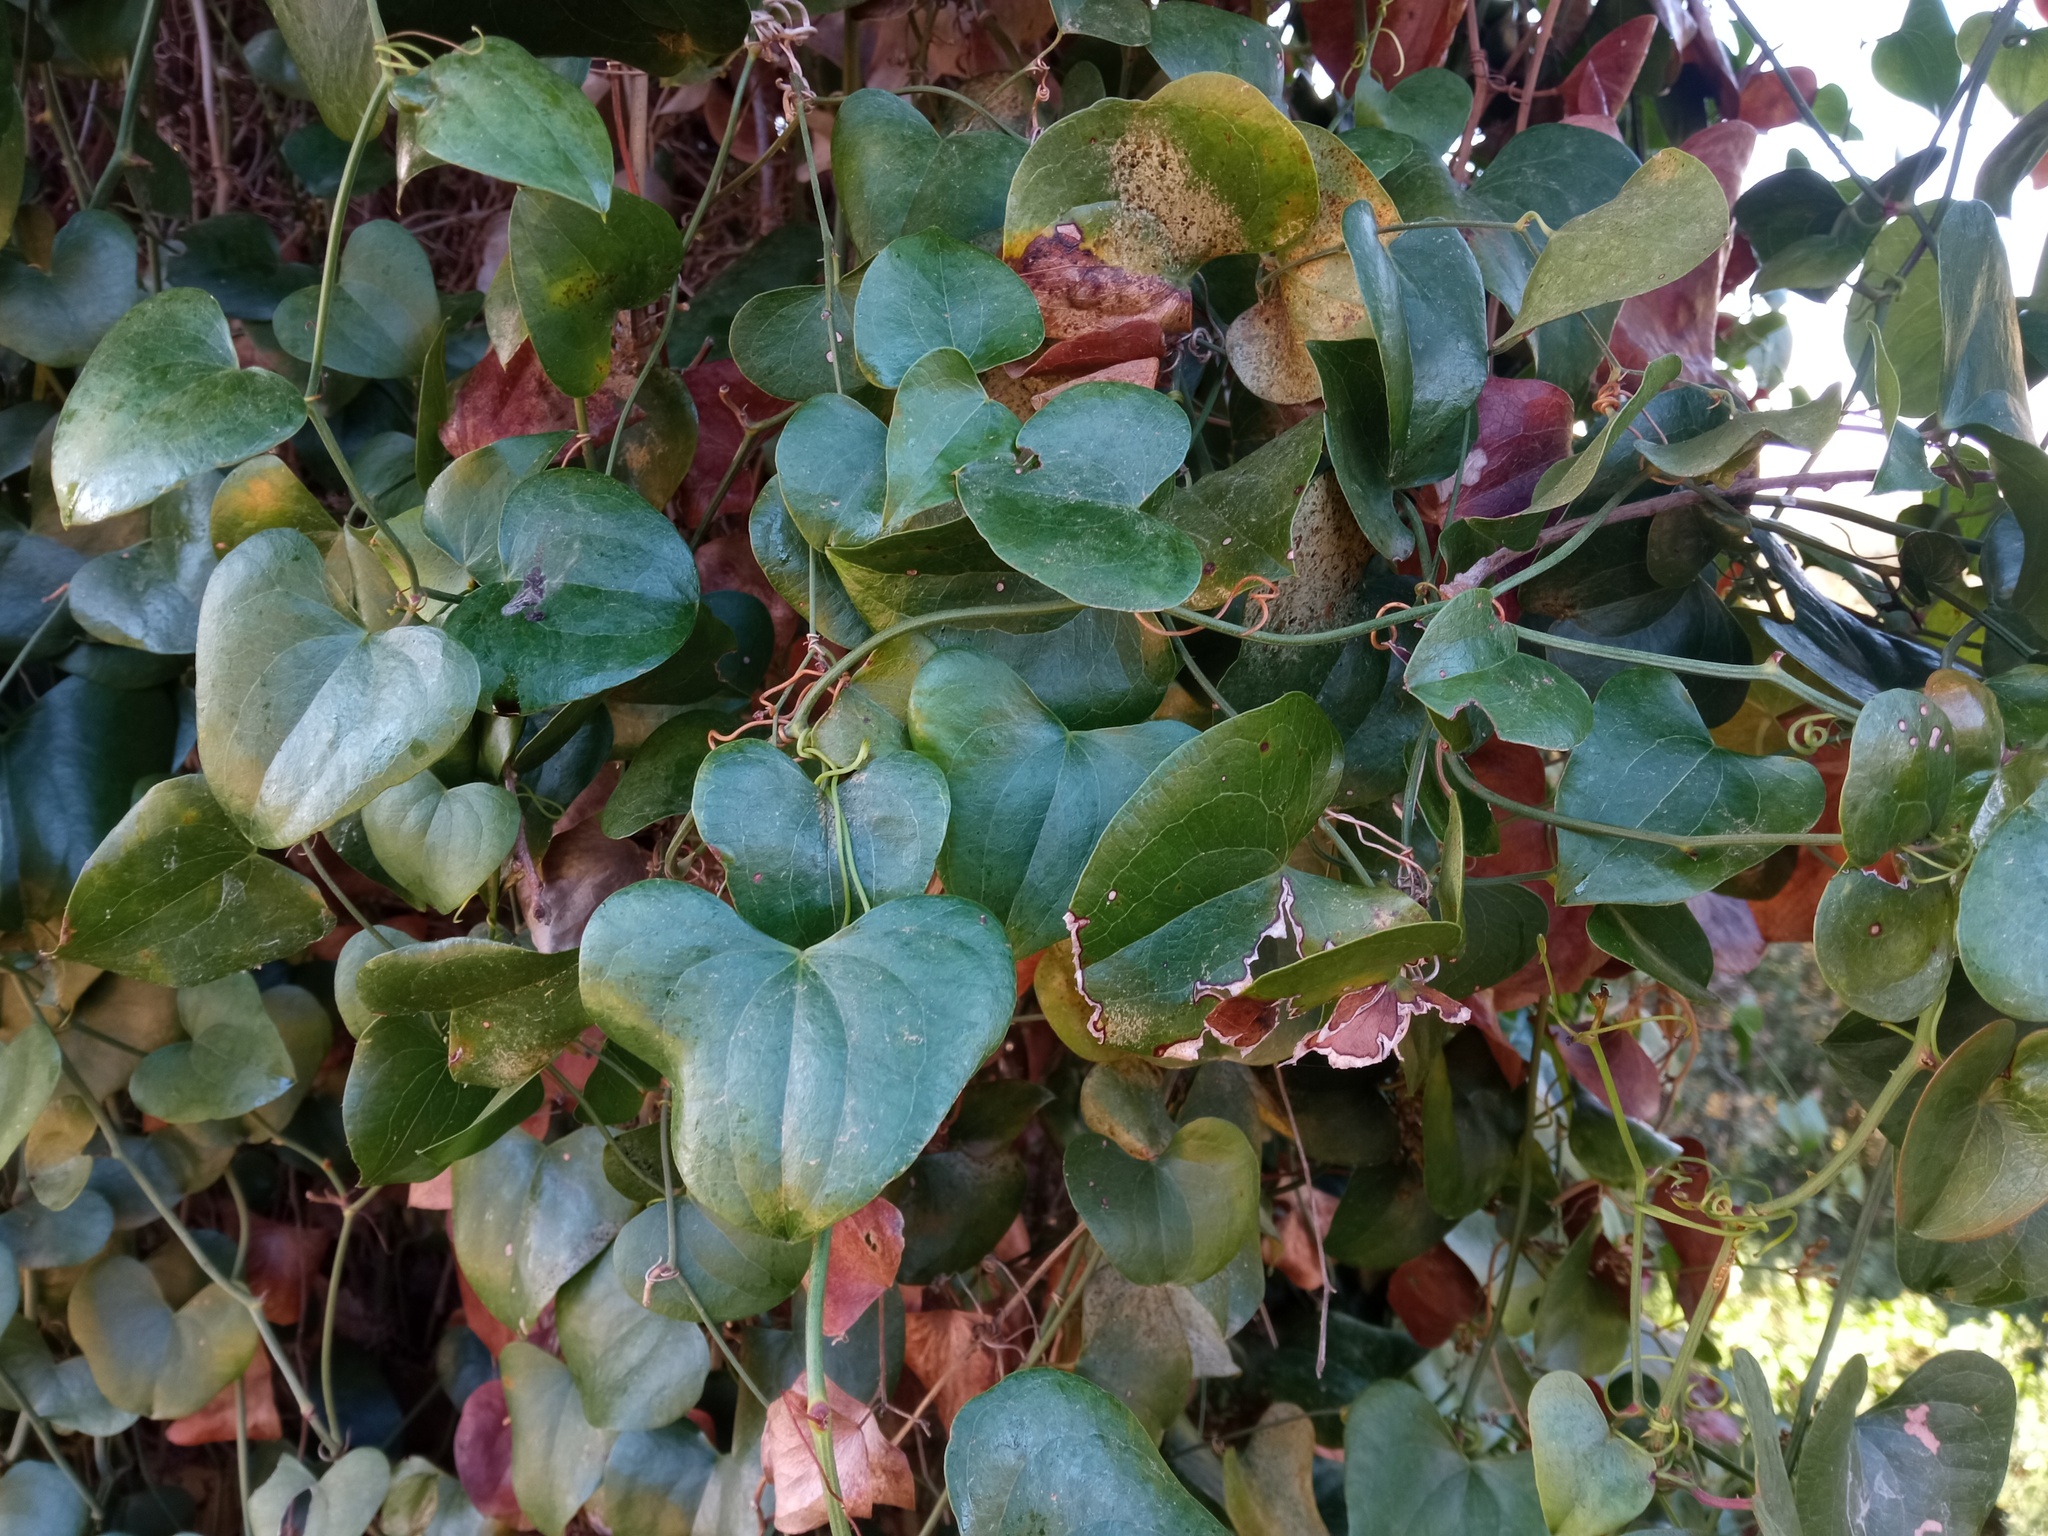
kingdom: Plantae
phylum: Tracheophyta
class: Liliopsida
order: Liliales
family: Smilacaceae
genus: Smilax
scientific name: Smilax aspera
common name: Common smilax
